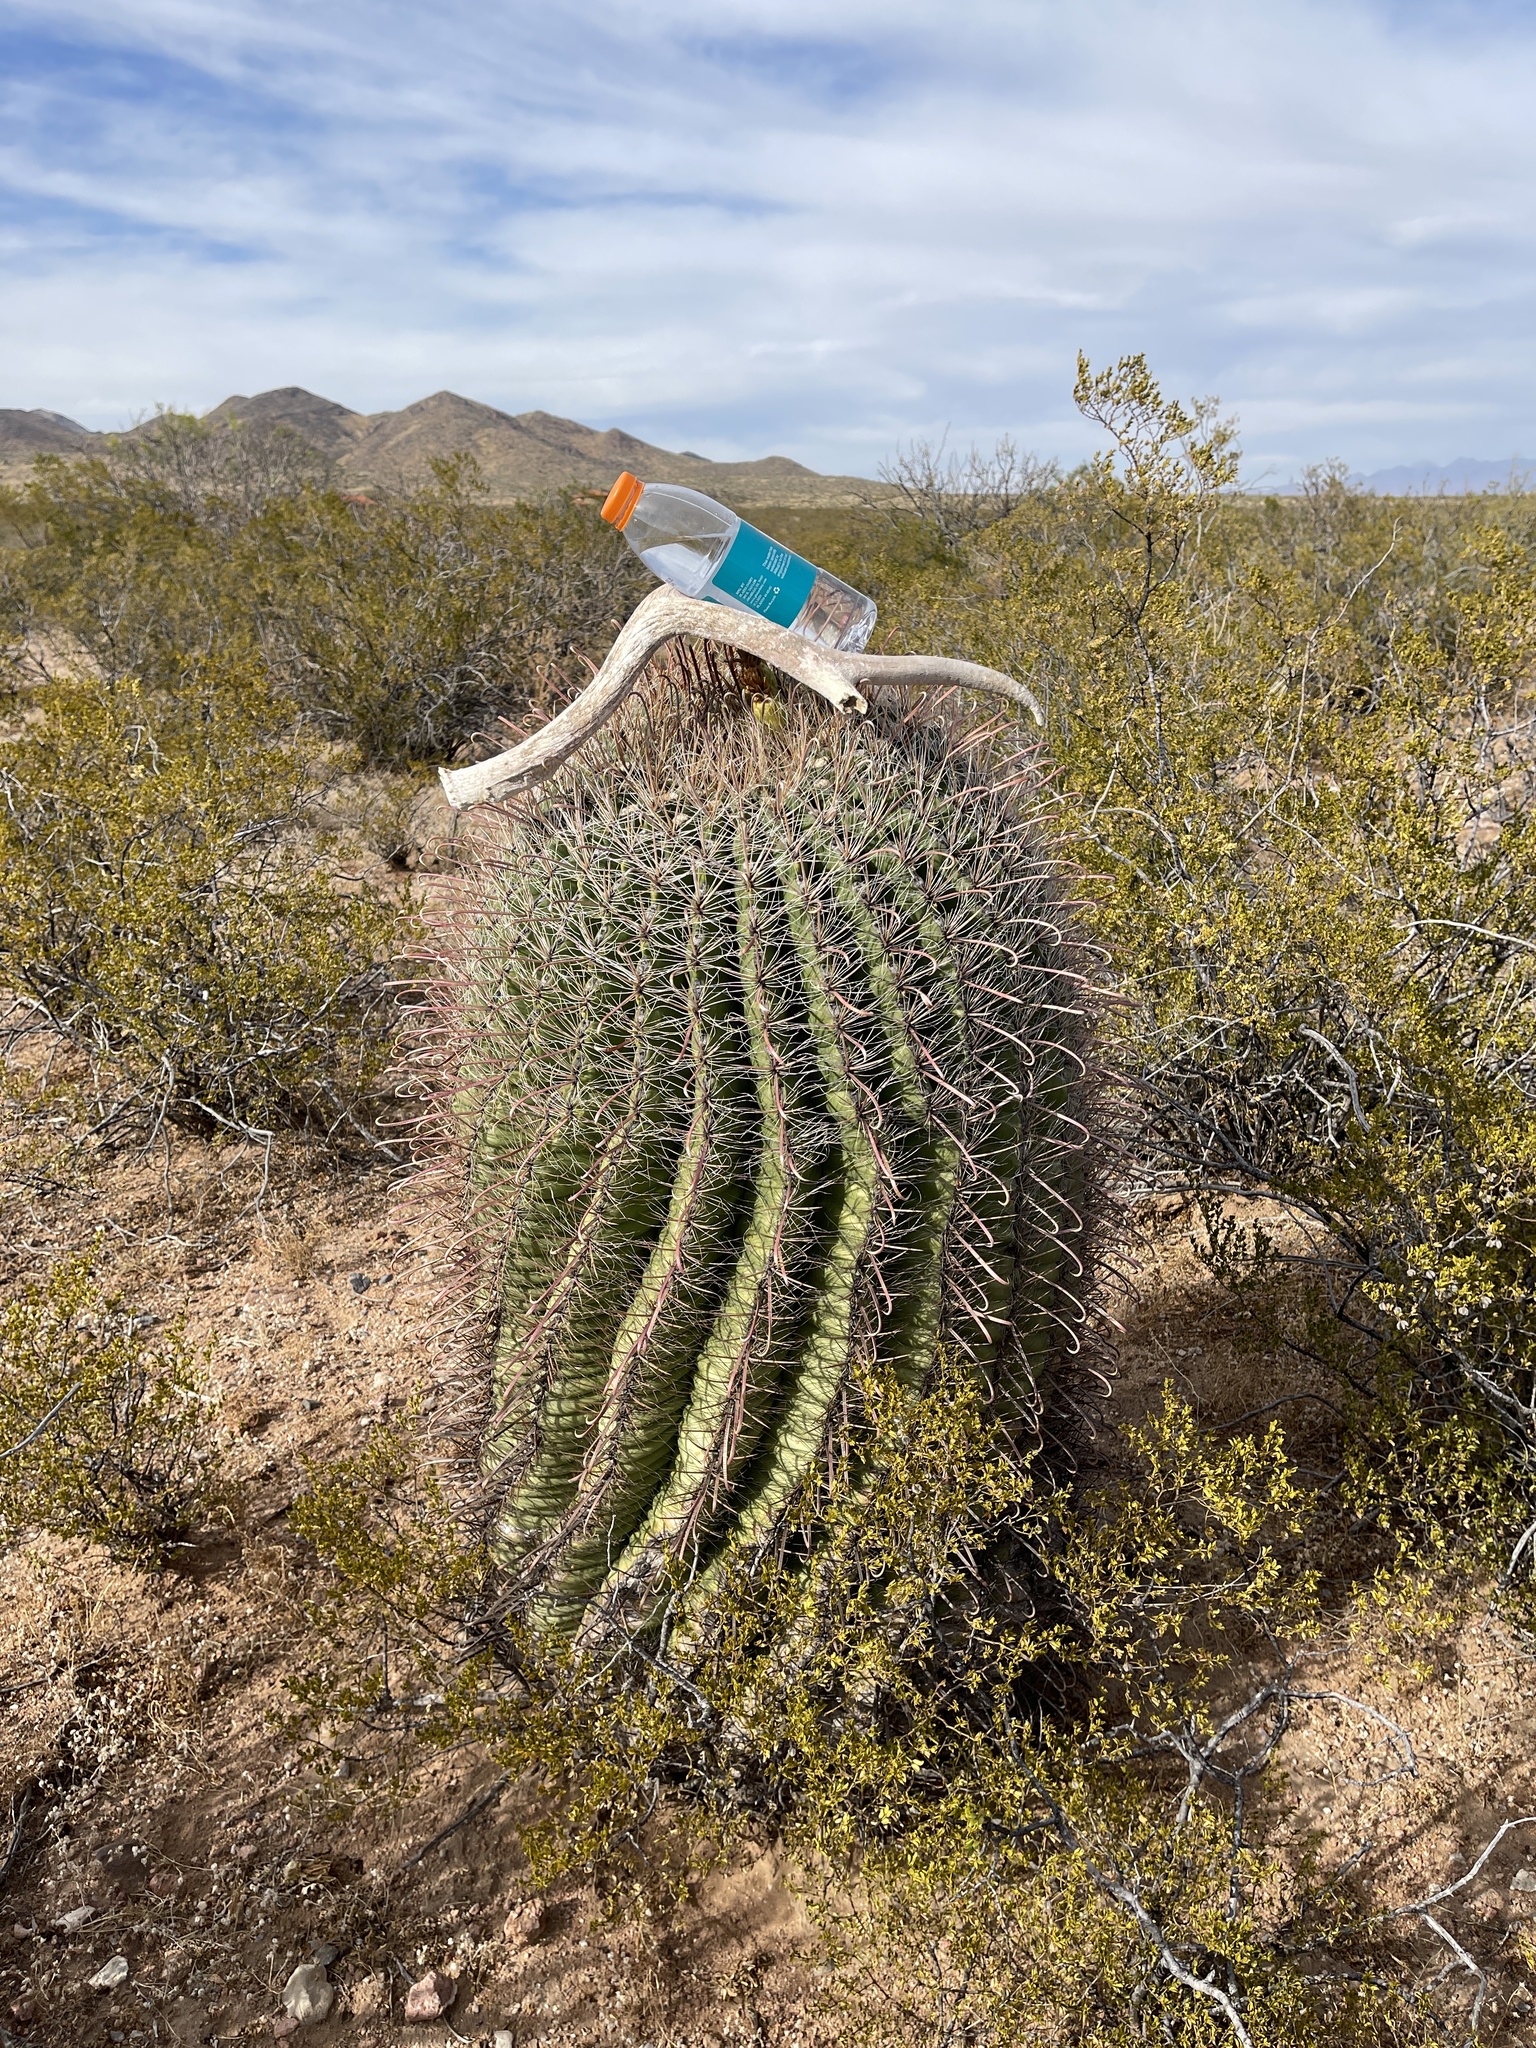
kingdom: Plantae
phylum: Tracheophyta
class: Magnoliopsida
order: Caryophyllales
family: Cactaceae
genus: Ferocactus
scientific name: Ferocactus wislizeni
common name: Candy barrel cactus
